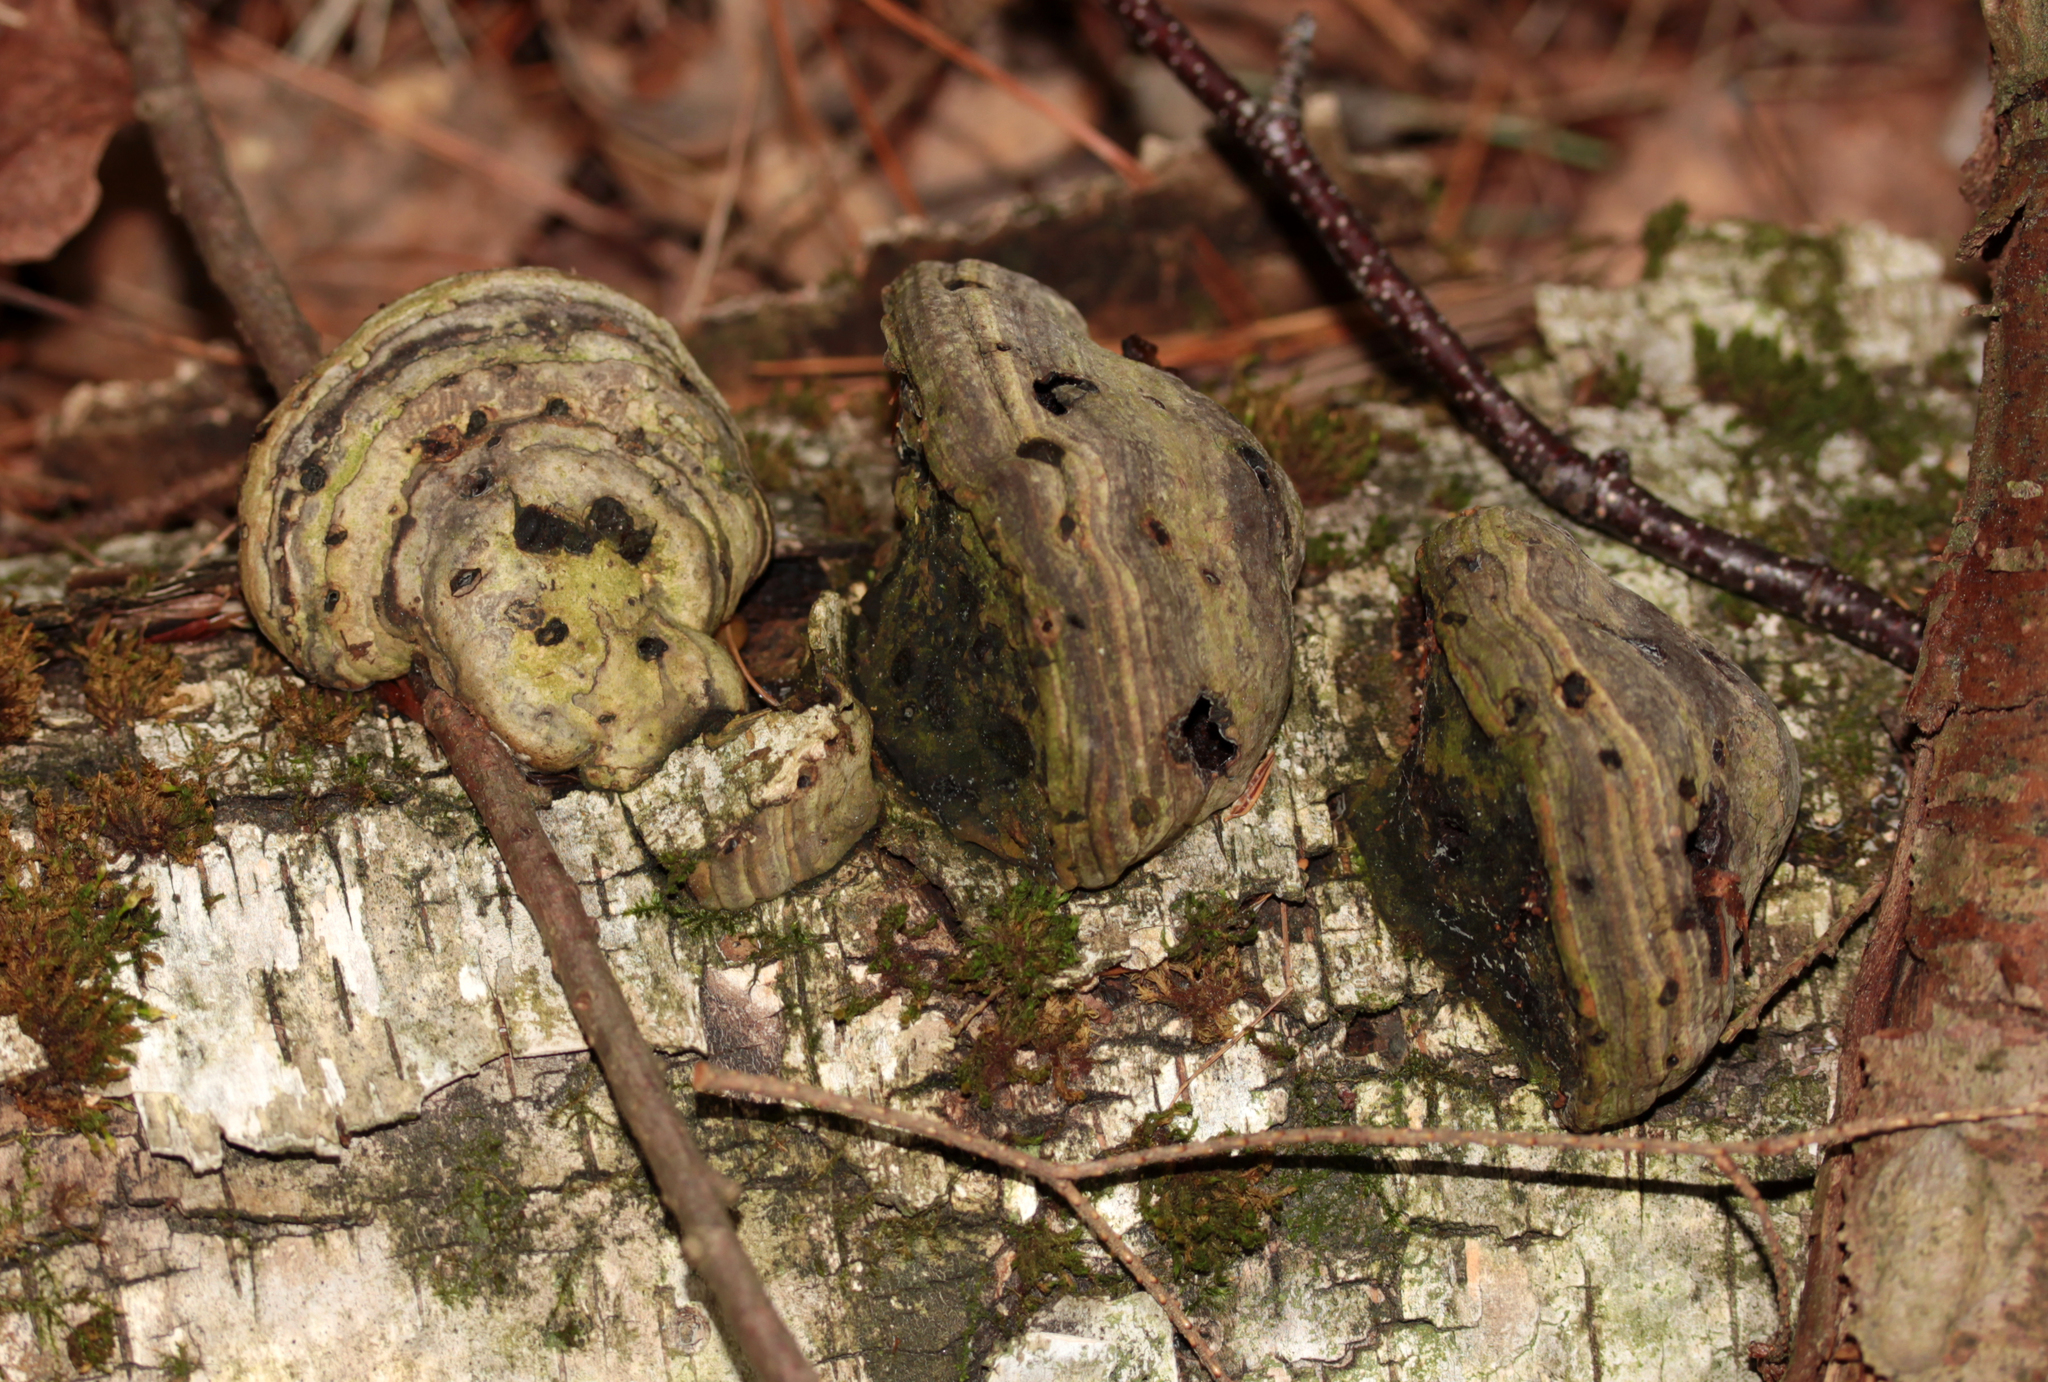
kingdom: Fungi
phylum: Basidiomycota
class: Agaricomycetes
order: Polyporales
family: Polyporaceae
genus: Fomes
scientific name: Fomes fomentarius
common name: Hoof fungus
